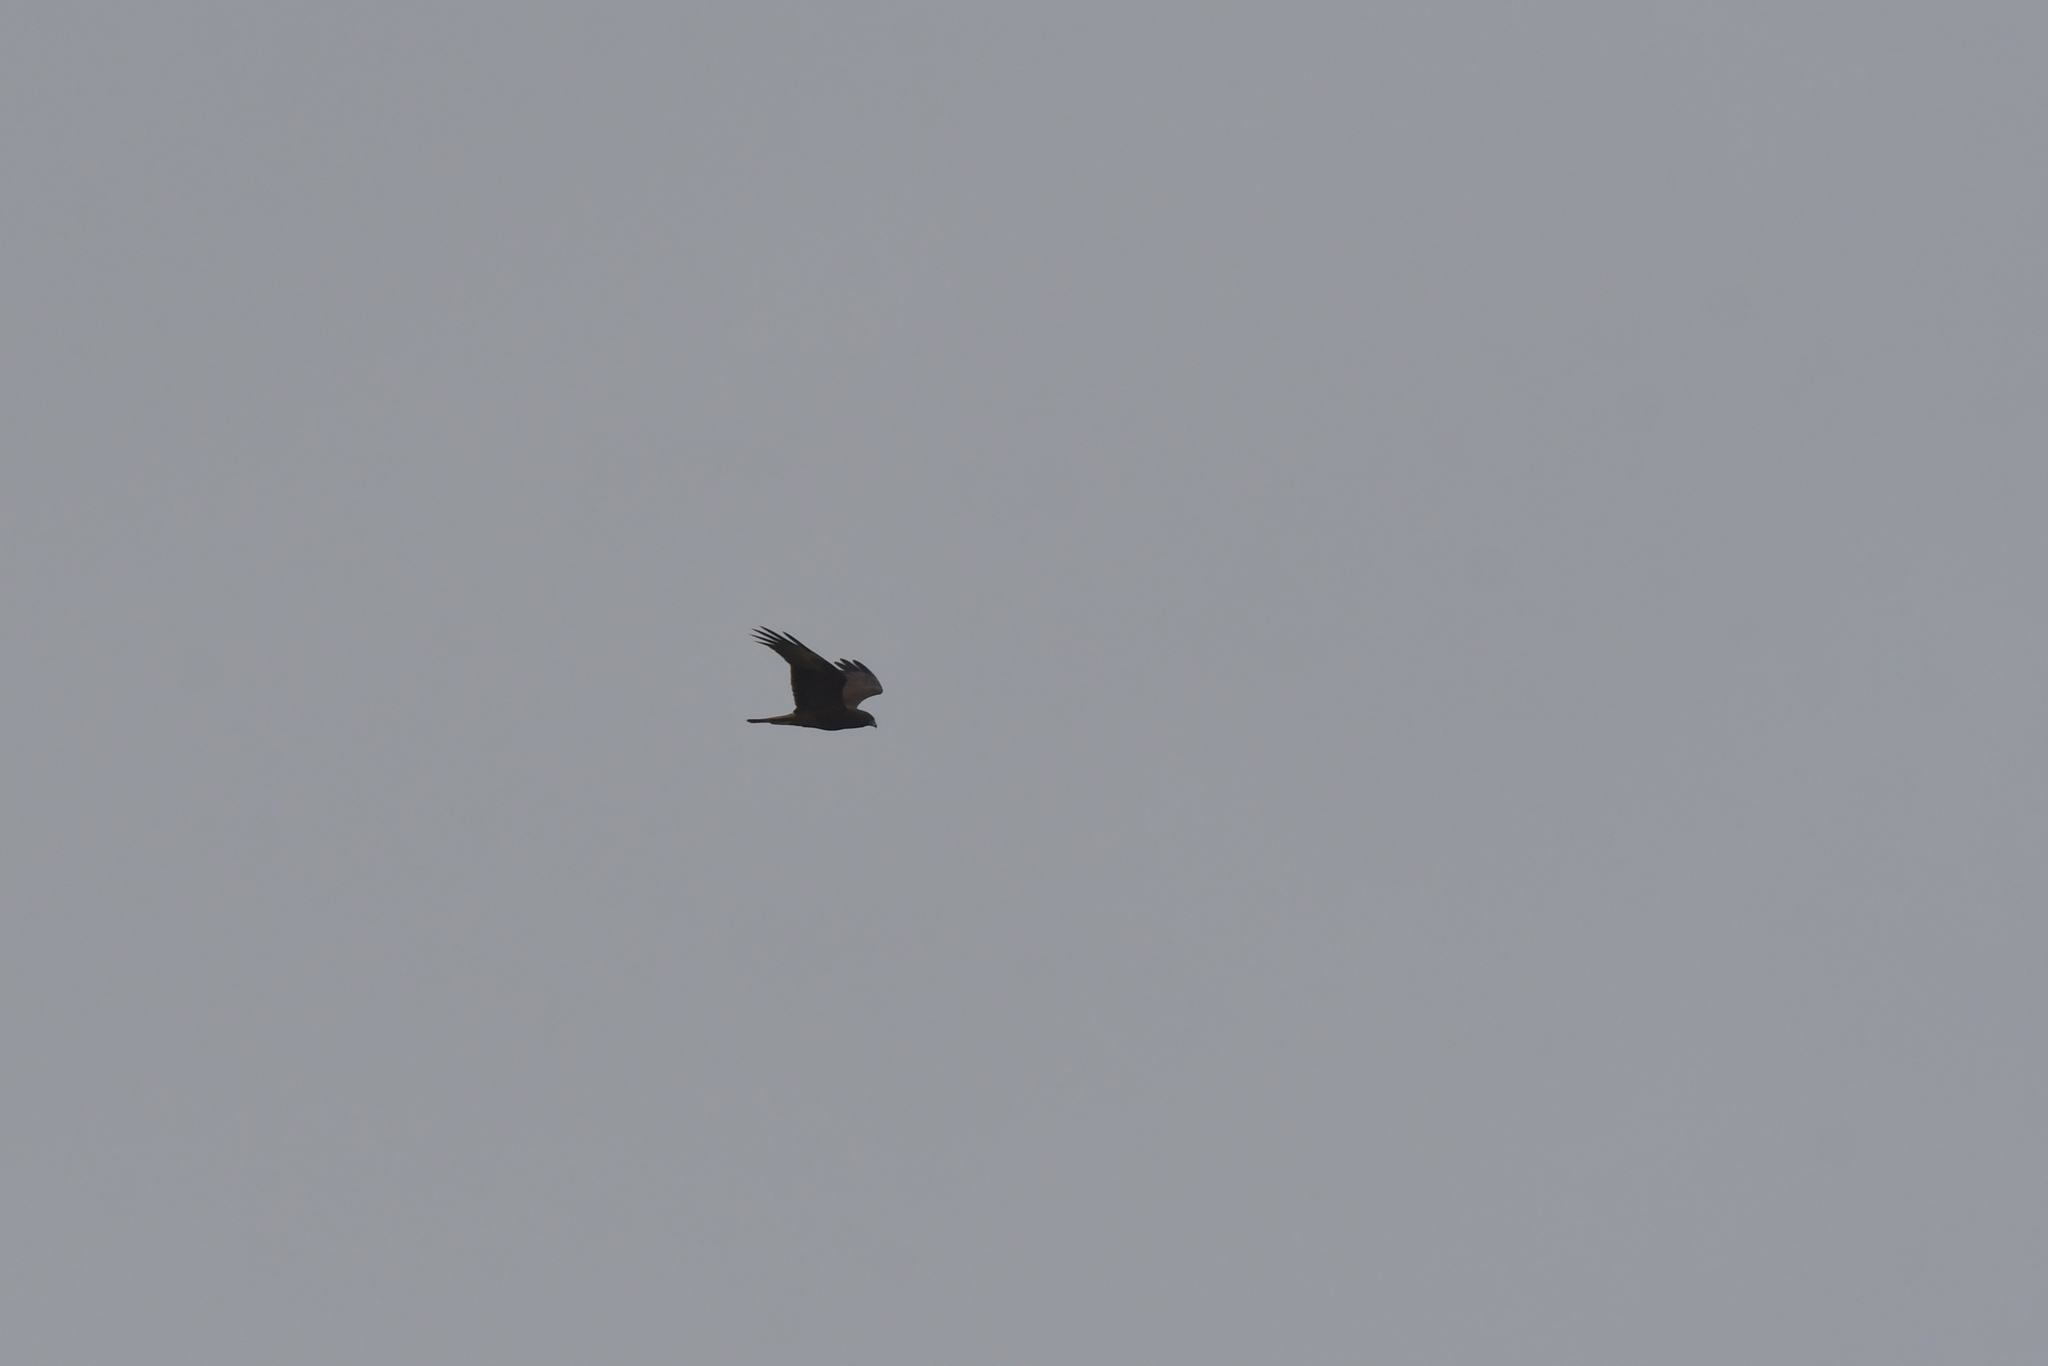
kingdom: Animalia
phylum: Chordata
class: Aves
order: Accipitriformes
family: Accipitridae
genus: Circus
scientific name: Circus approximans
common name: Swamp harrier
